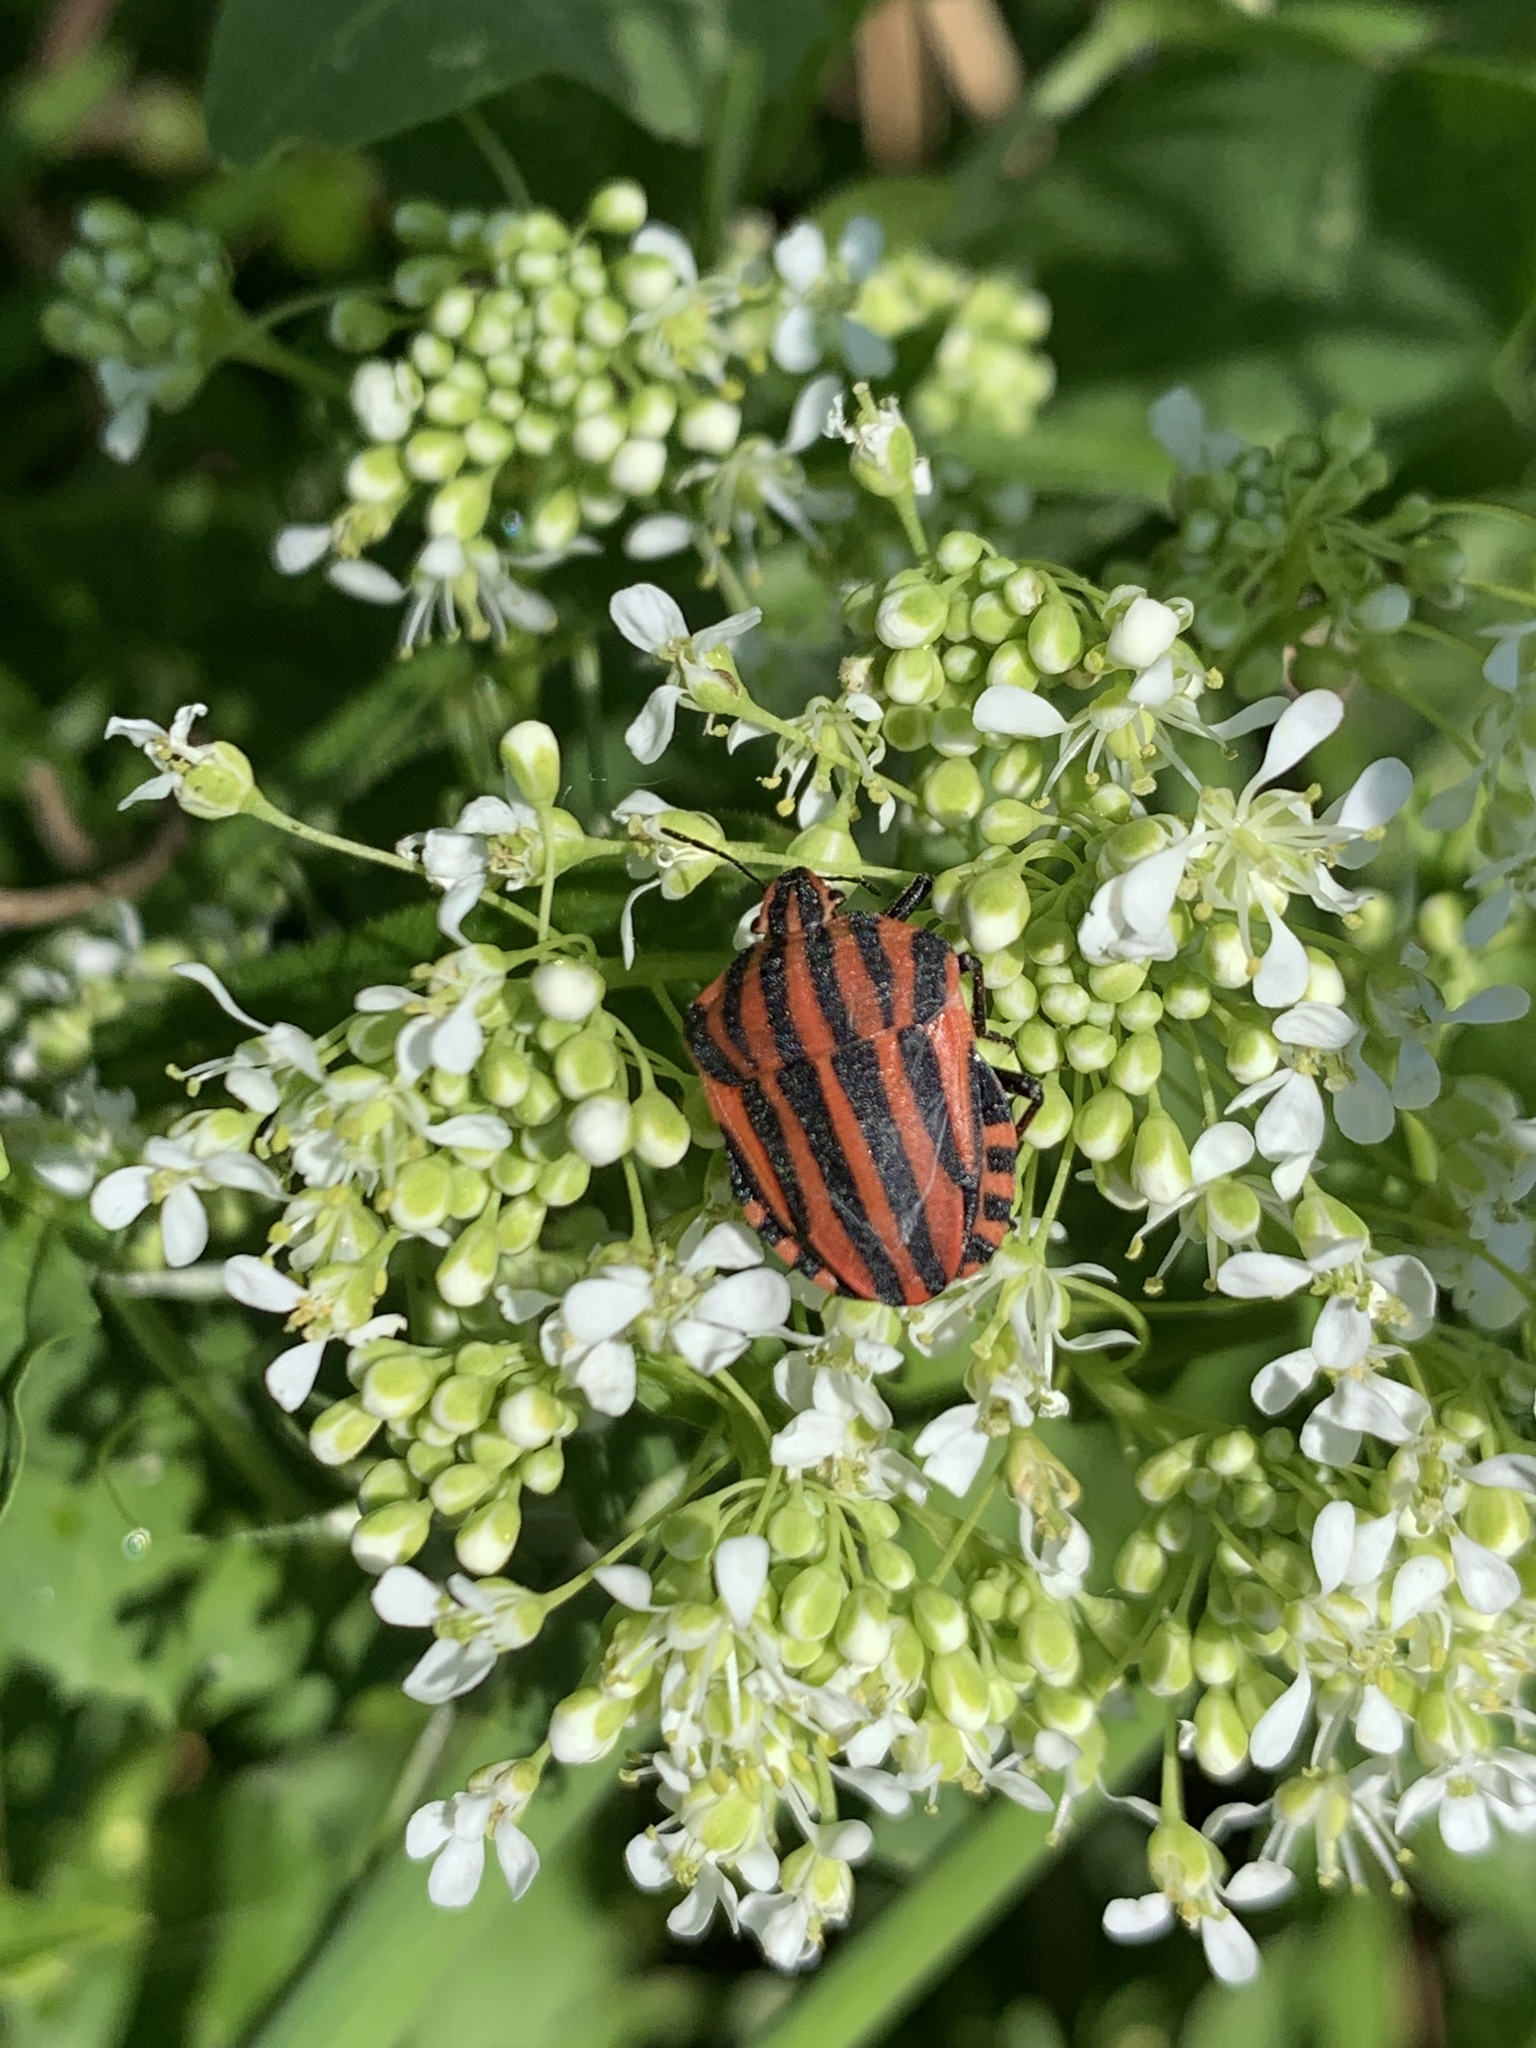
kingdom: Animalia
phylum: Arthropoda
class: Insecta
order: Hemiptera
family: Pentatomidae
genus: Graphosoma
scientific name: Graphosoma italicum
